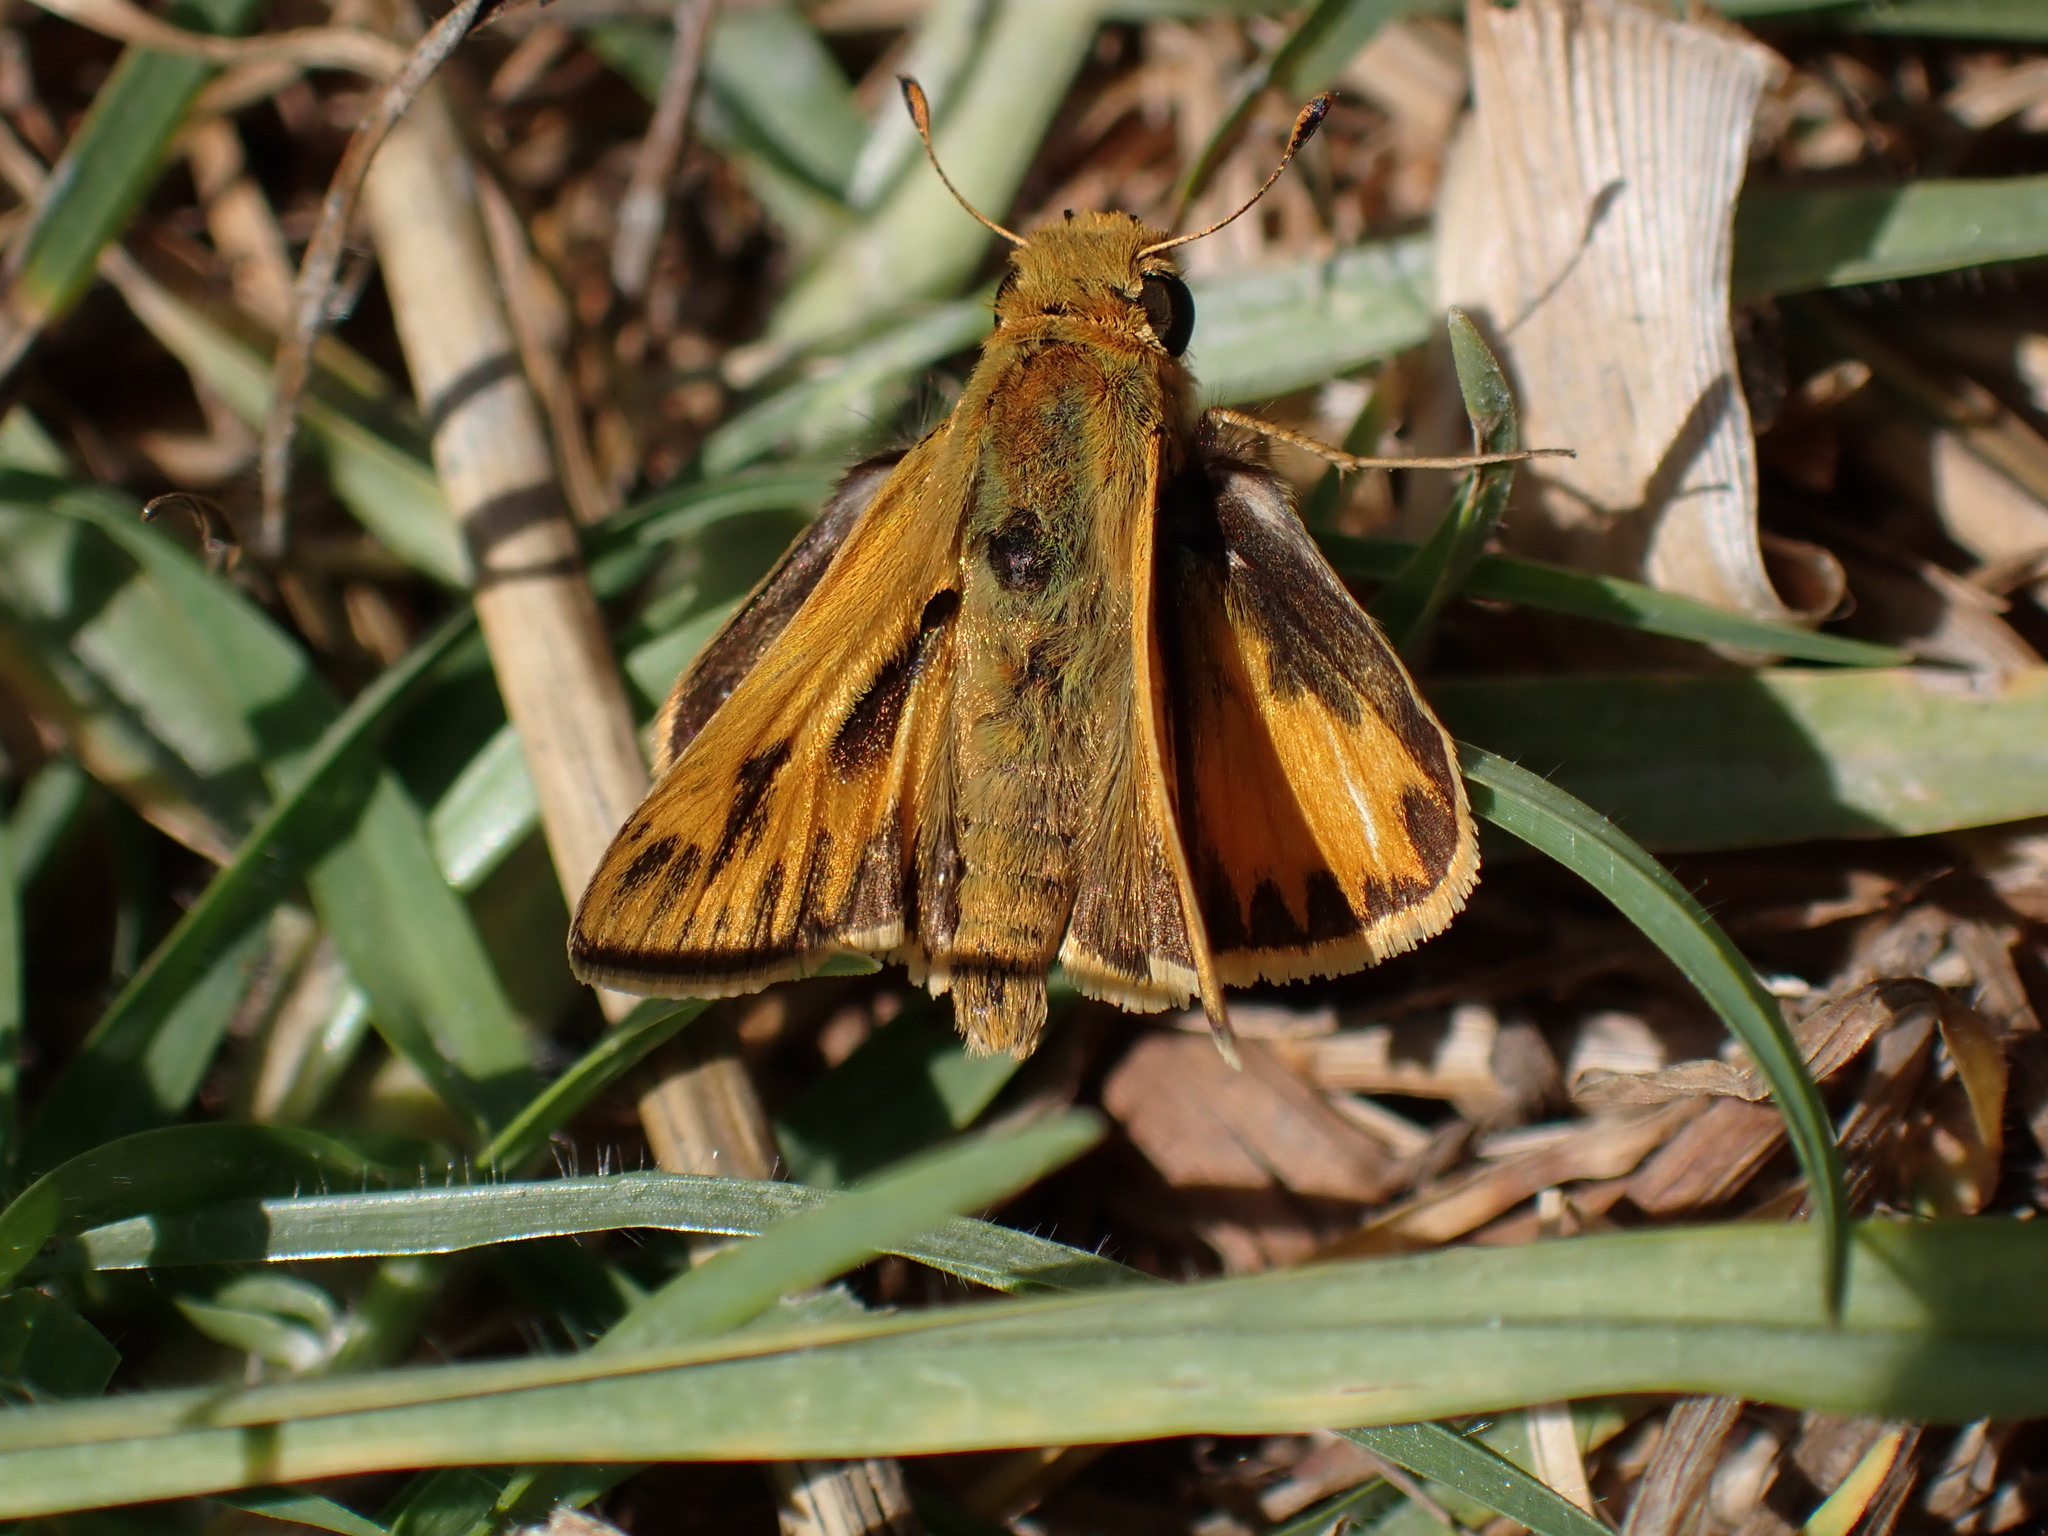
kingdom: Animalia
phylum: Arthropoda
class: Insecta
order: Lepidoptera
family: Hesperiidae
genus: Hylephila
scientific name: Hylephila phyleus
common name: Fiery skipper
